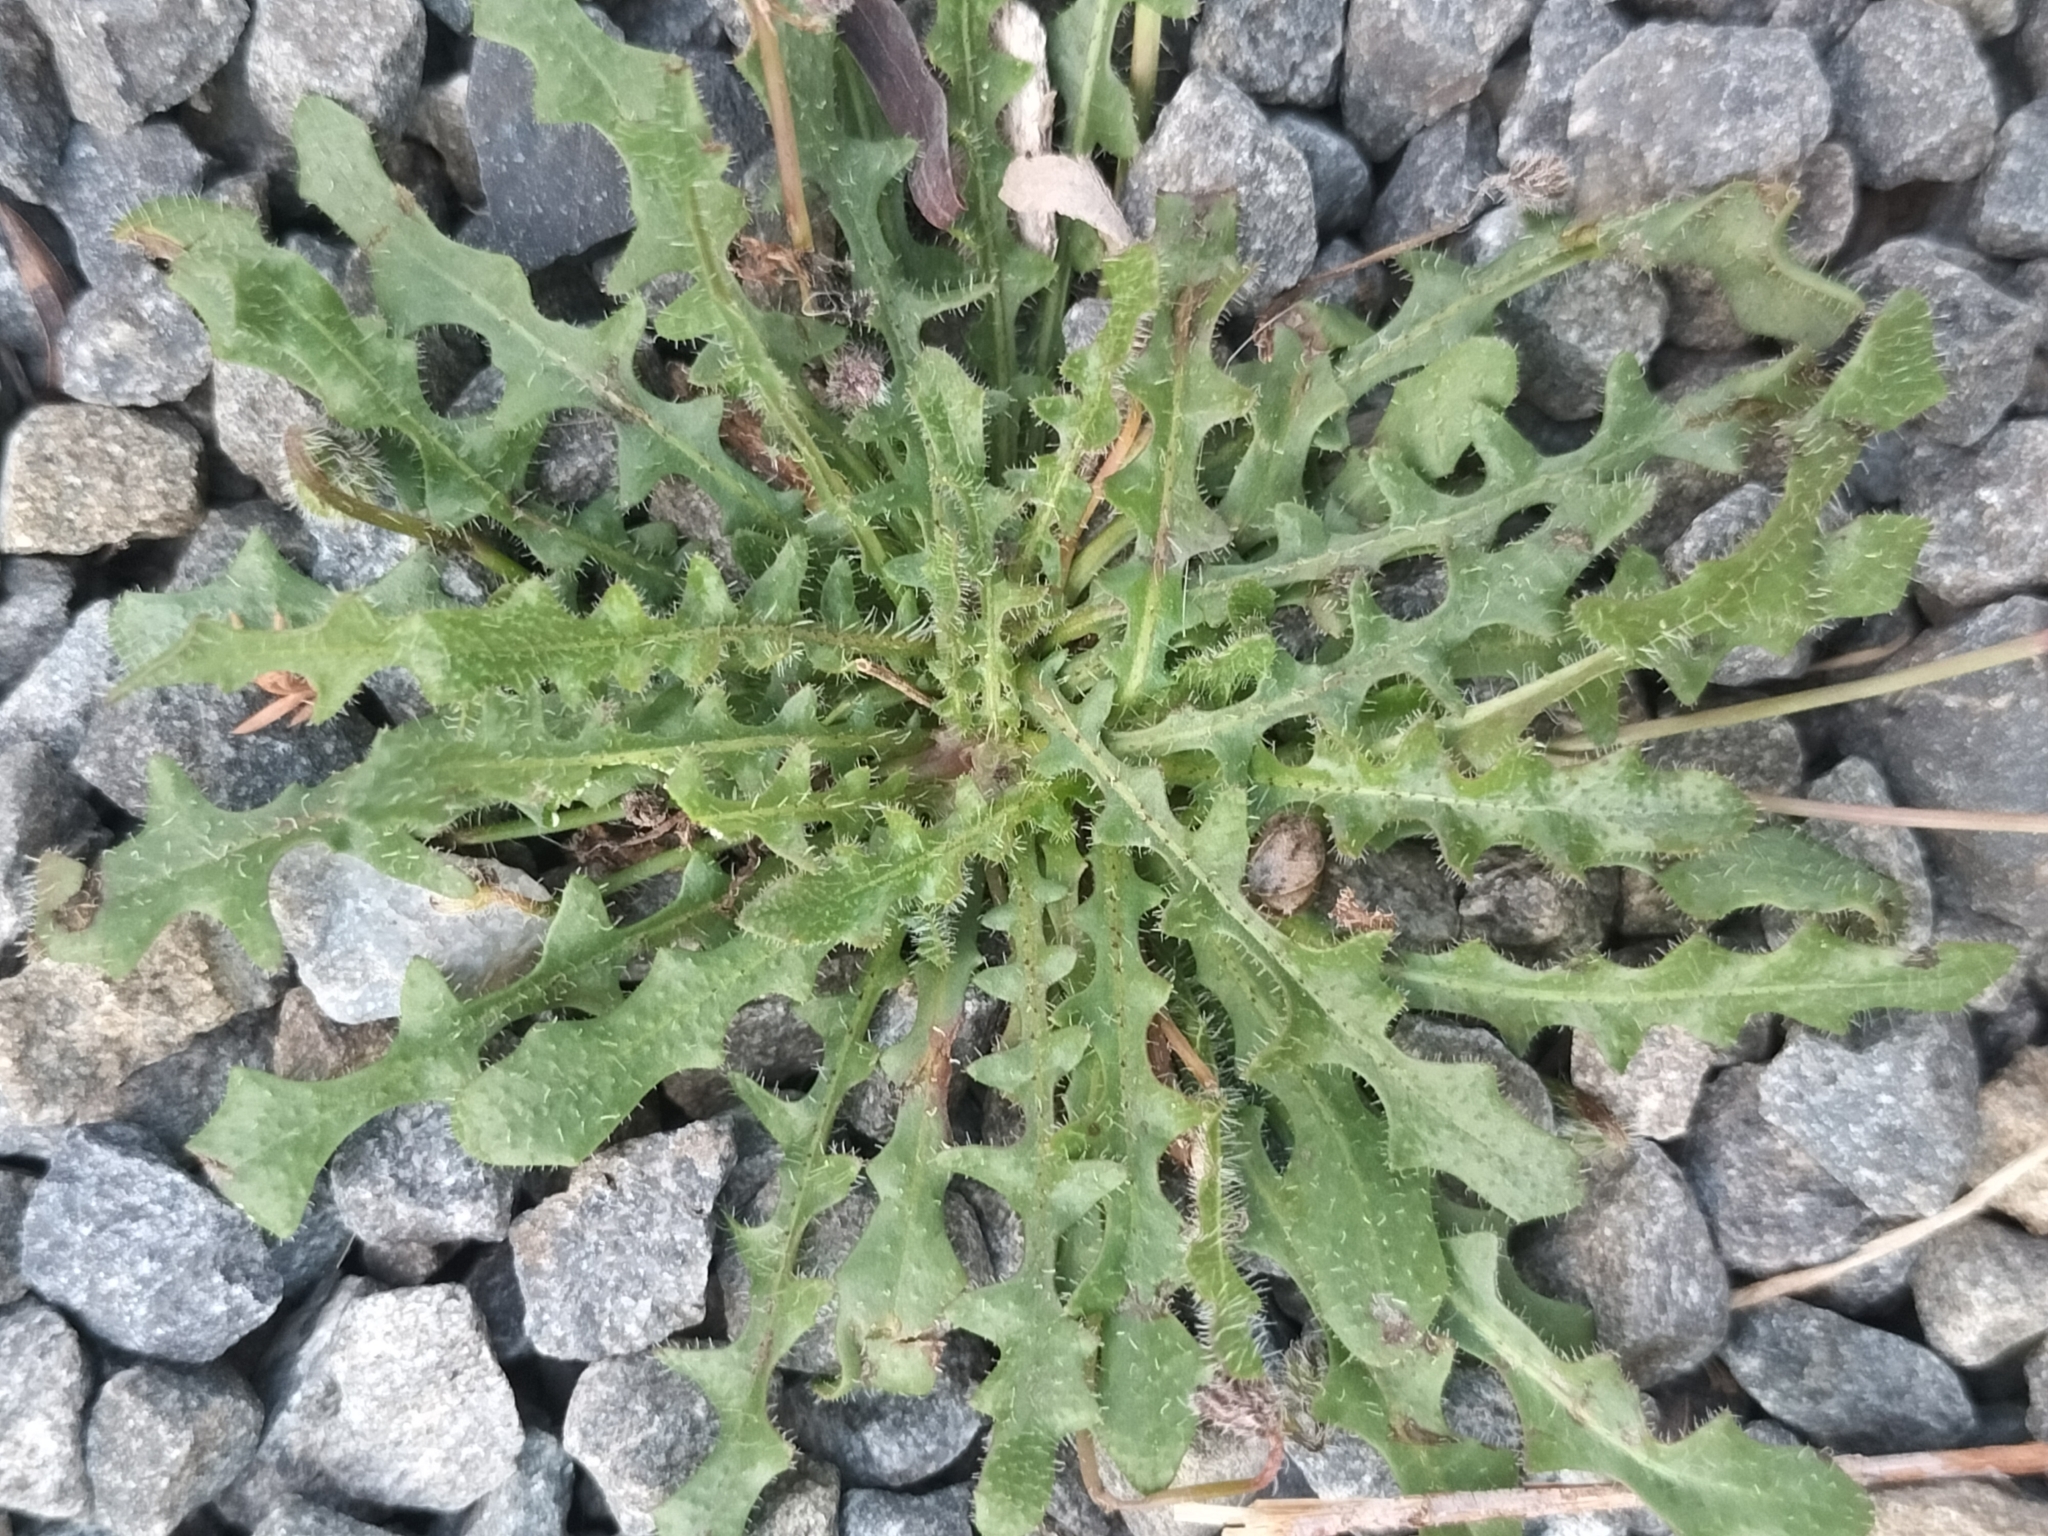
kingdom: Plantae
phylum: Tracheophyta
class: Magnoliopsida
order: Asterales
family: Asteraceae
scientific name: Asteraceae
